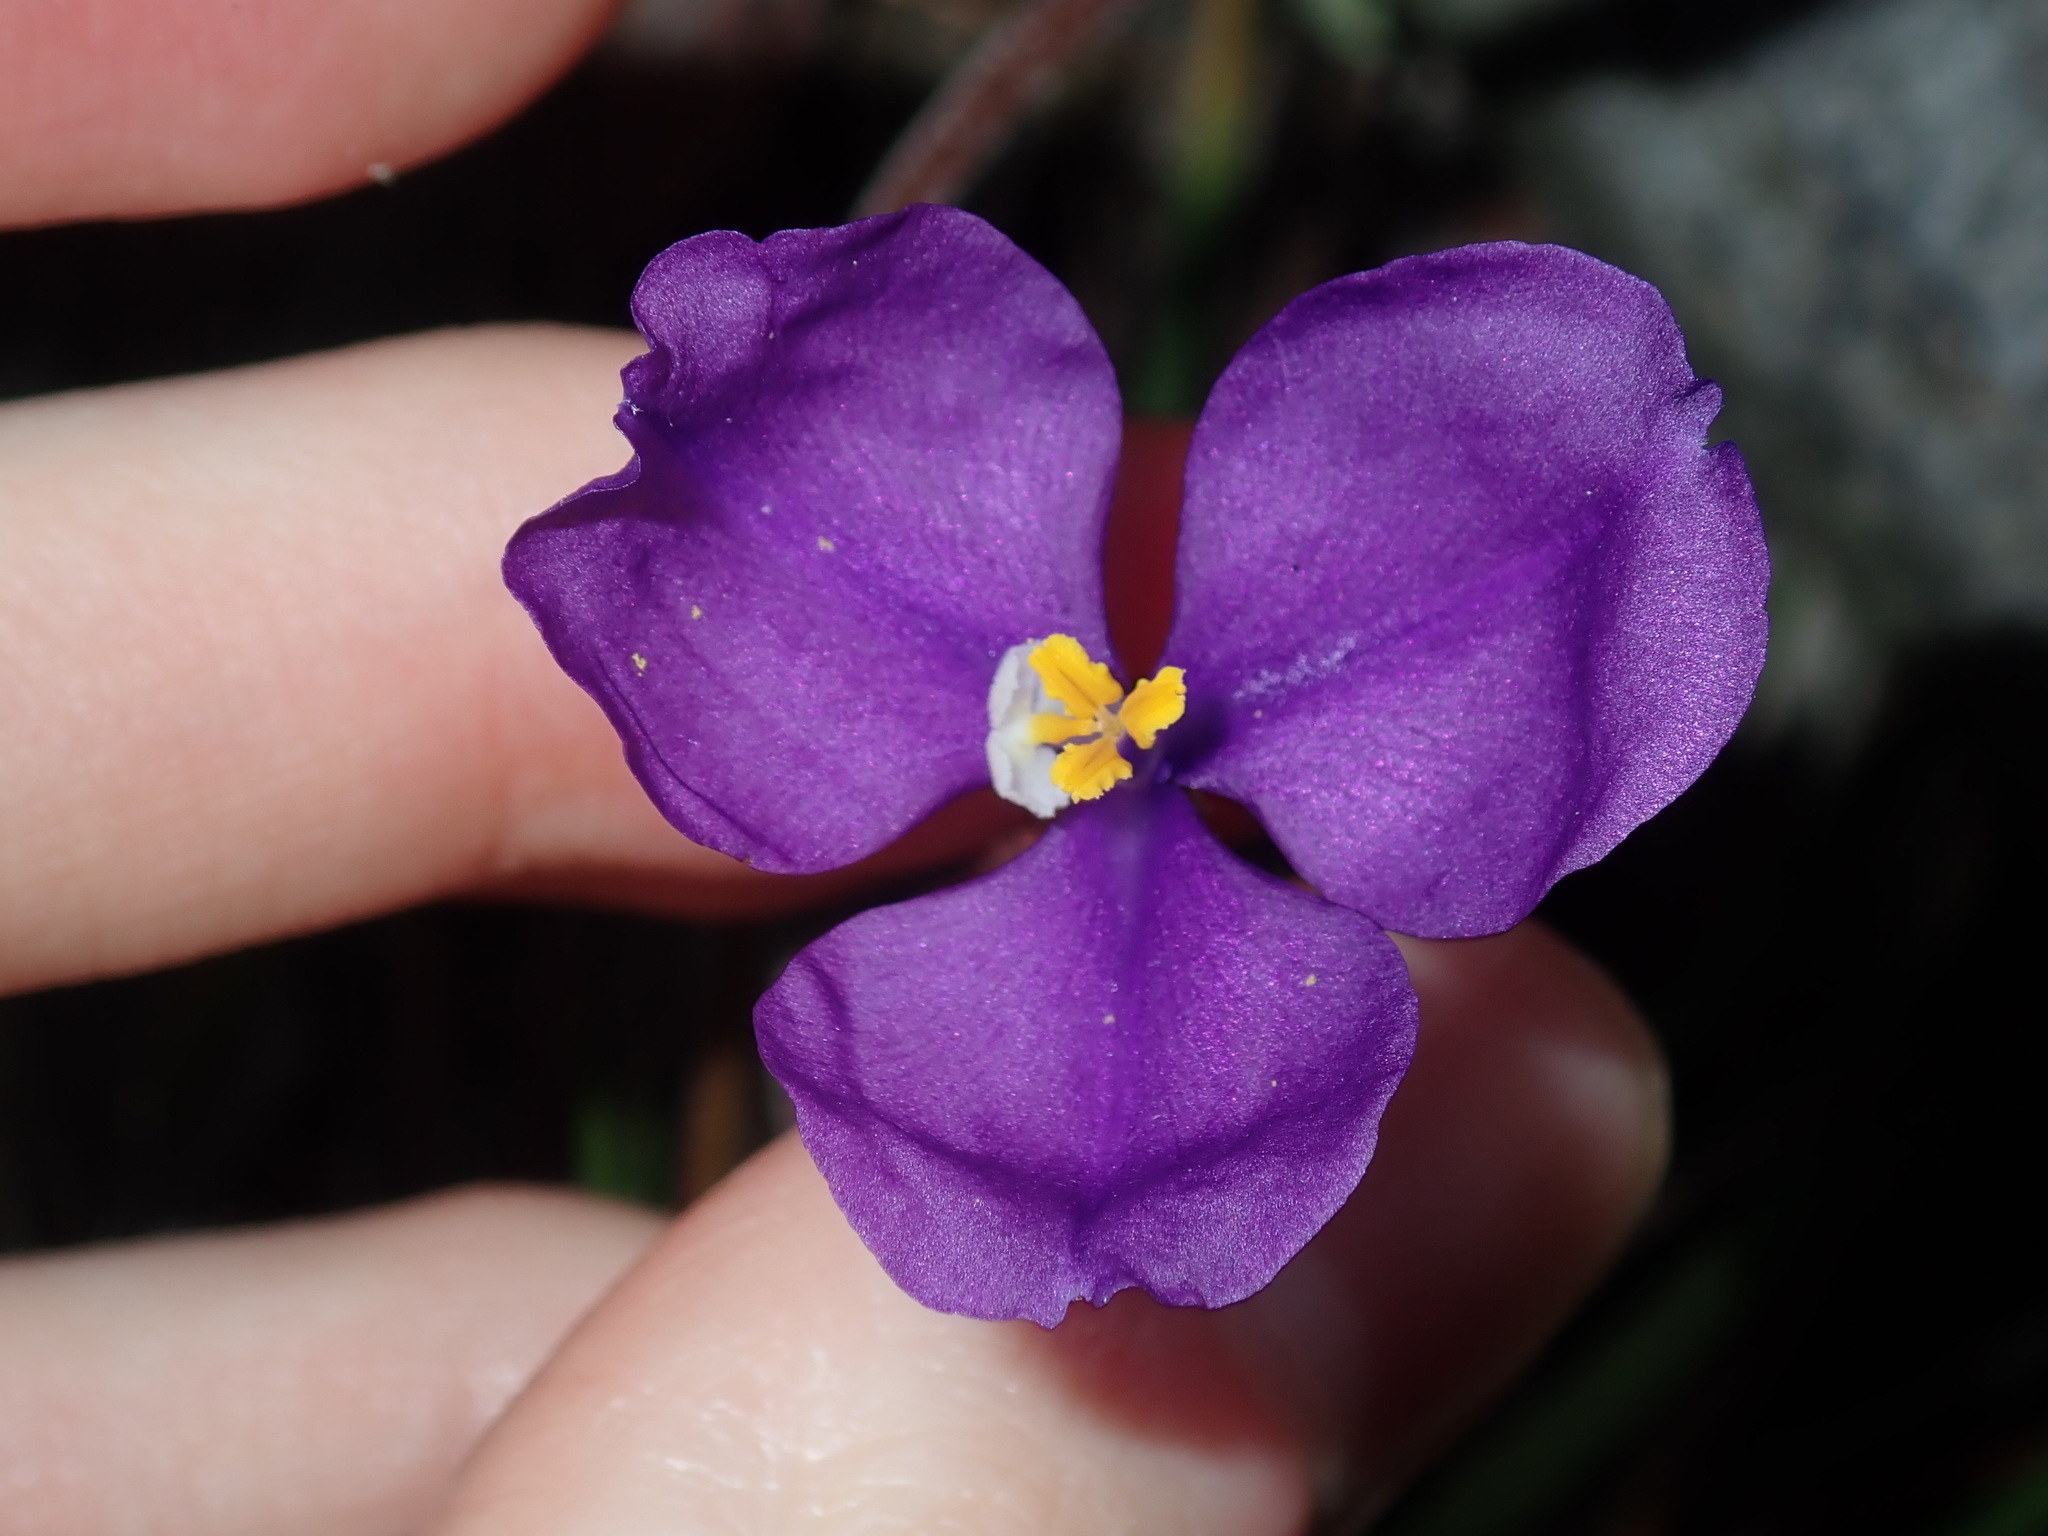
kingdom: Plantae
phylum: Tracheophyta
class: Liliopsida
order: Asparagales
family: Iridaceae
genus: Patersonia
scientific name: Patersonia sericea
